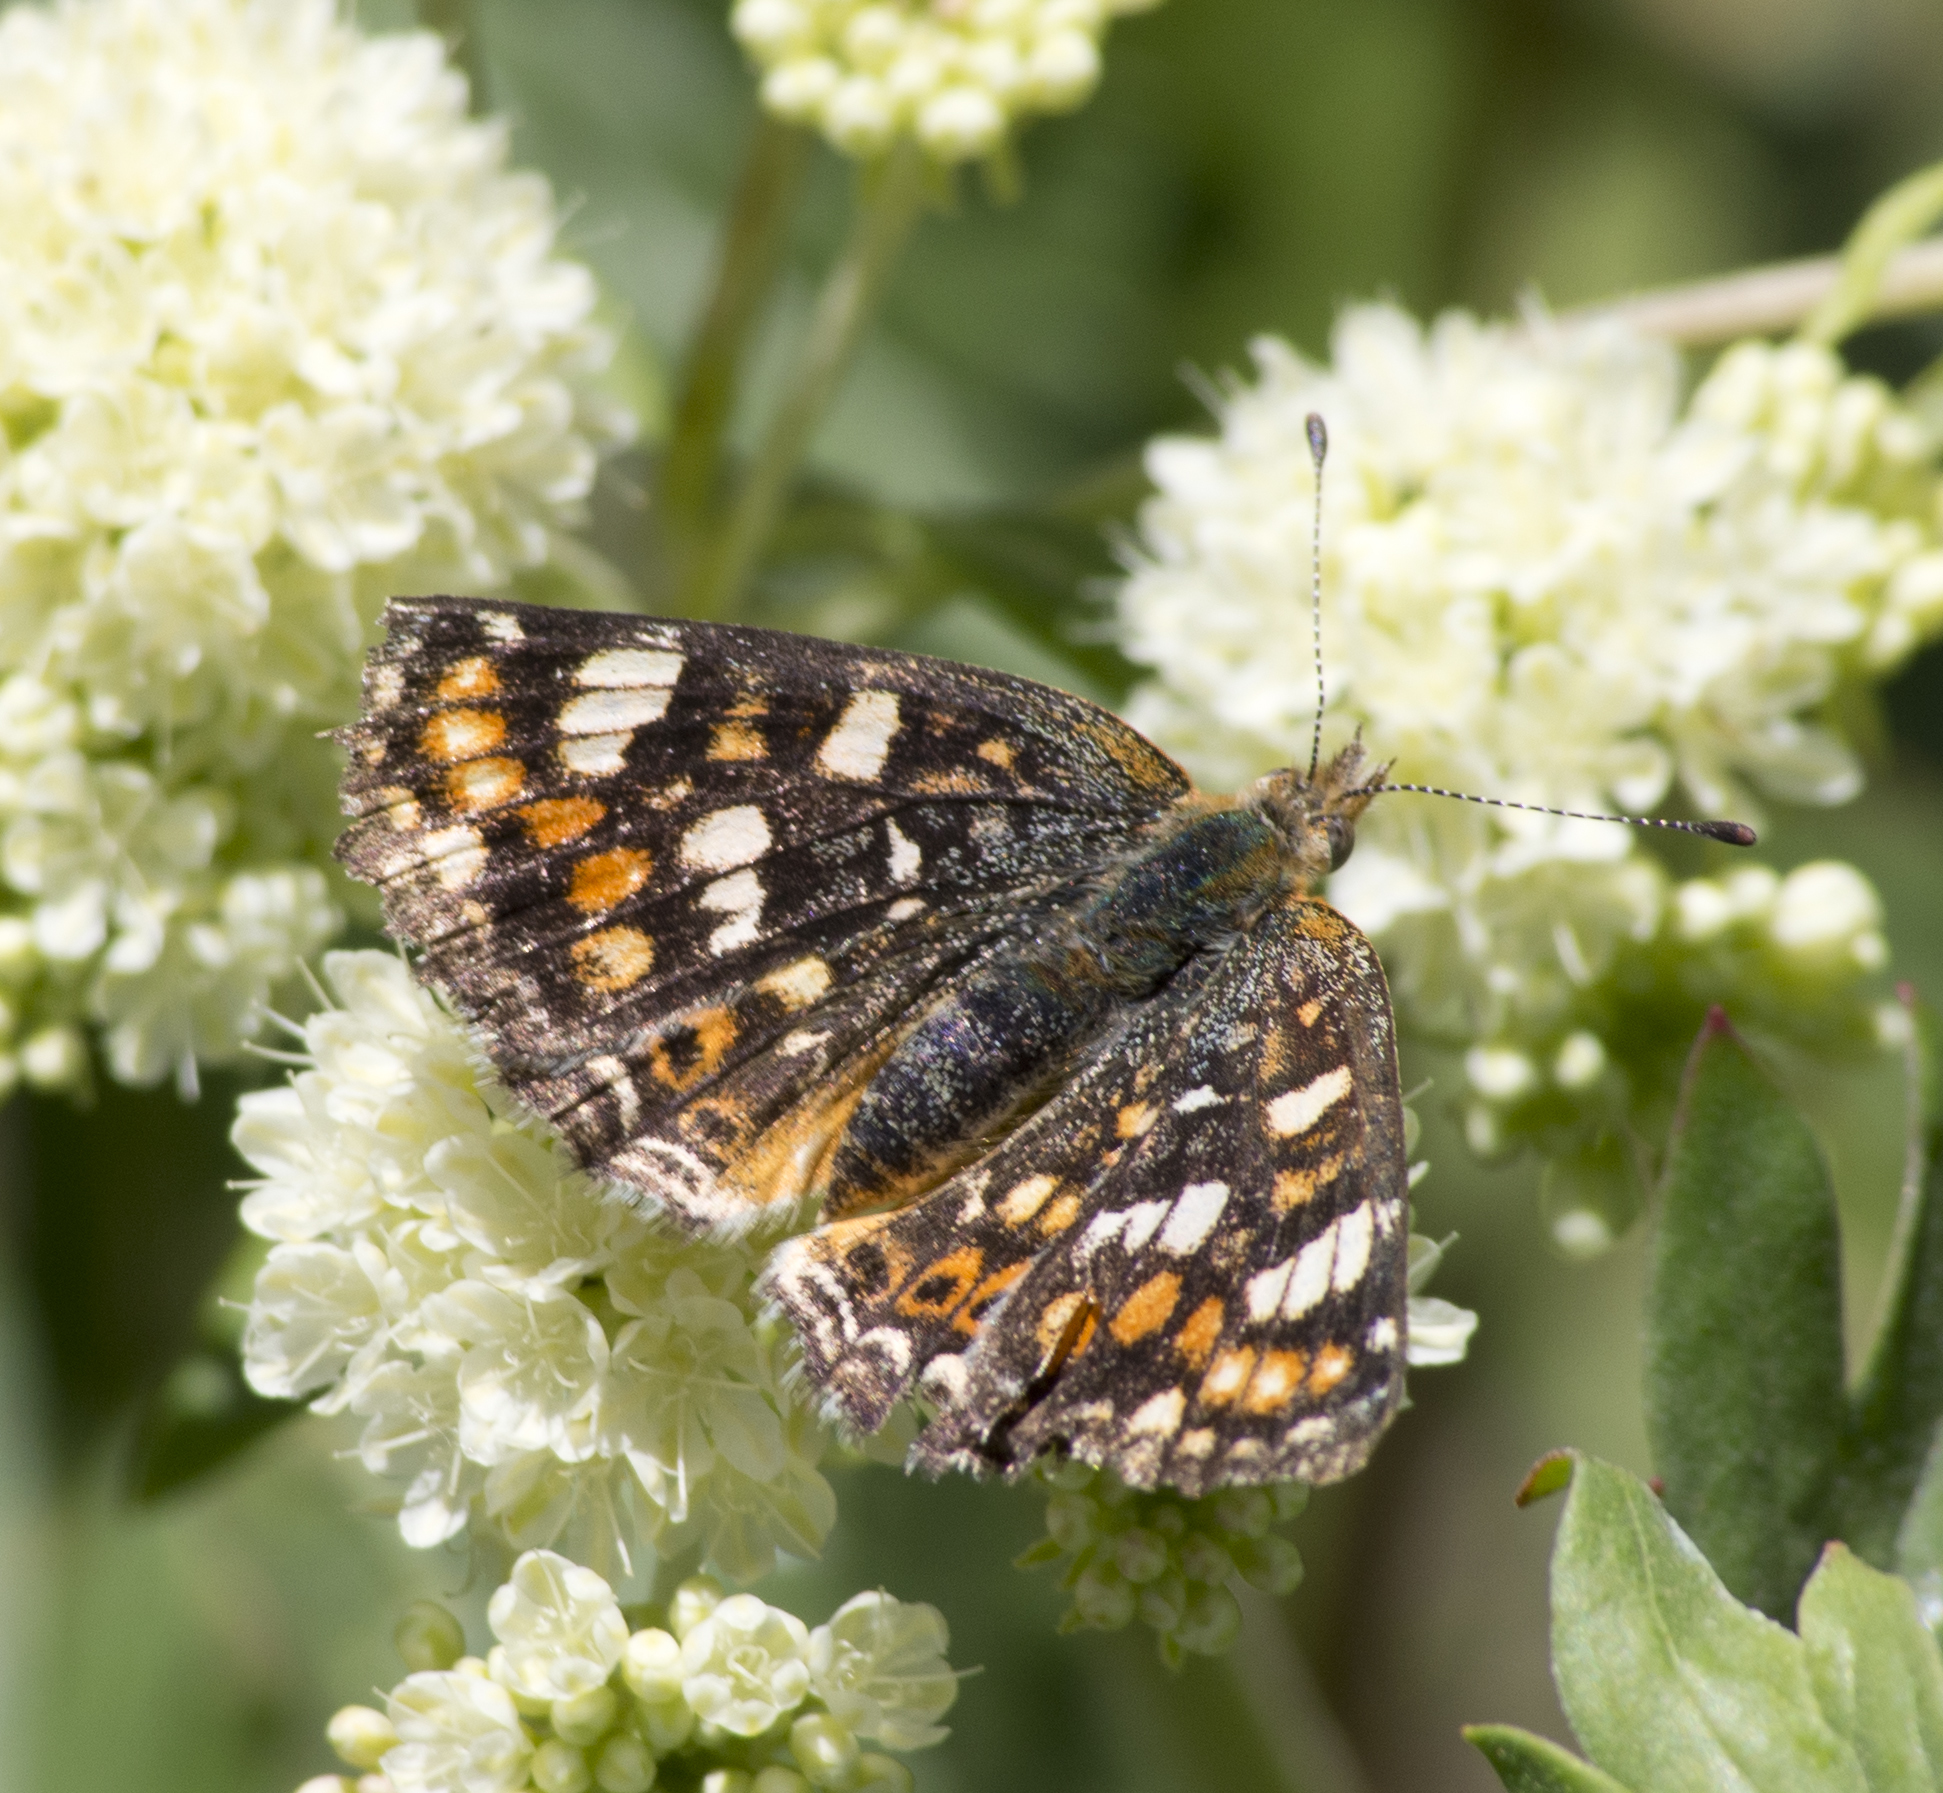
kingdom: Animalia
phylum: Arthropoda
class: Insecta
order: Lepidoptera
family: Nymphalidae
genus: Phyciodes
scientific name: Phyciodes tharos
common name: Pearl crescent
